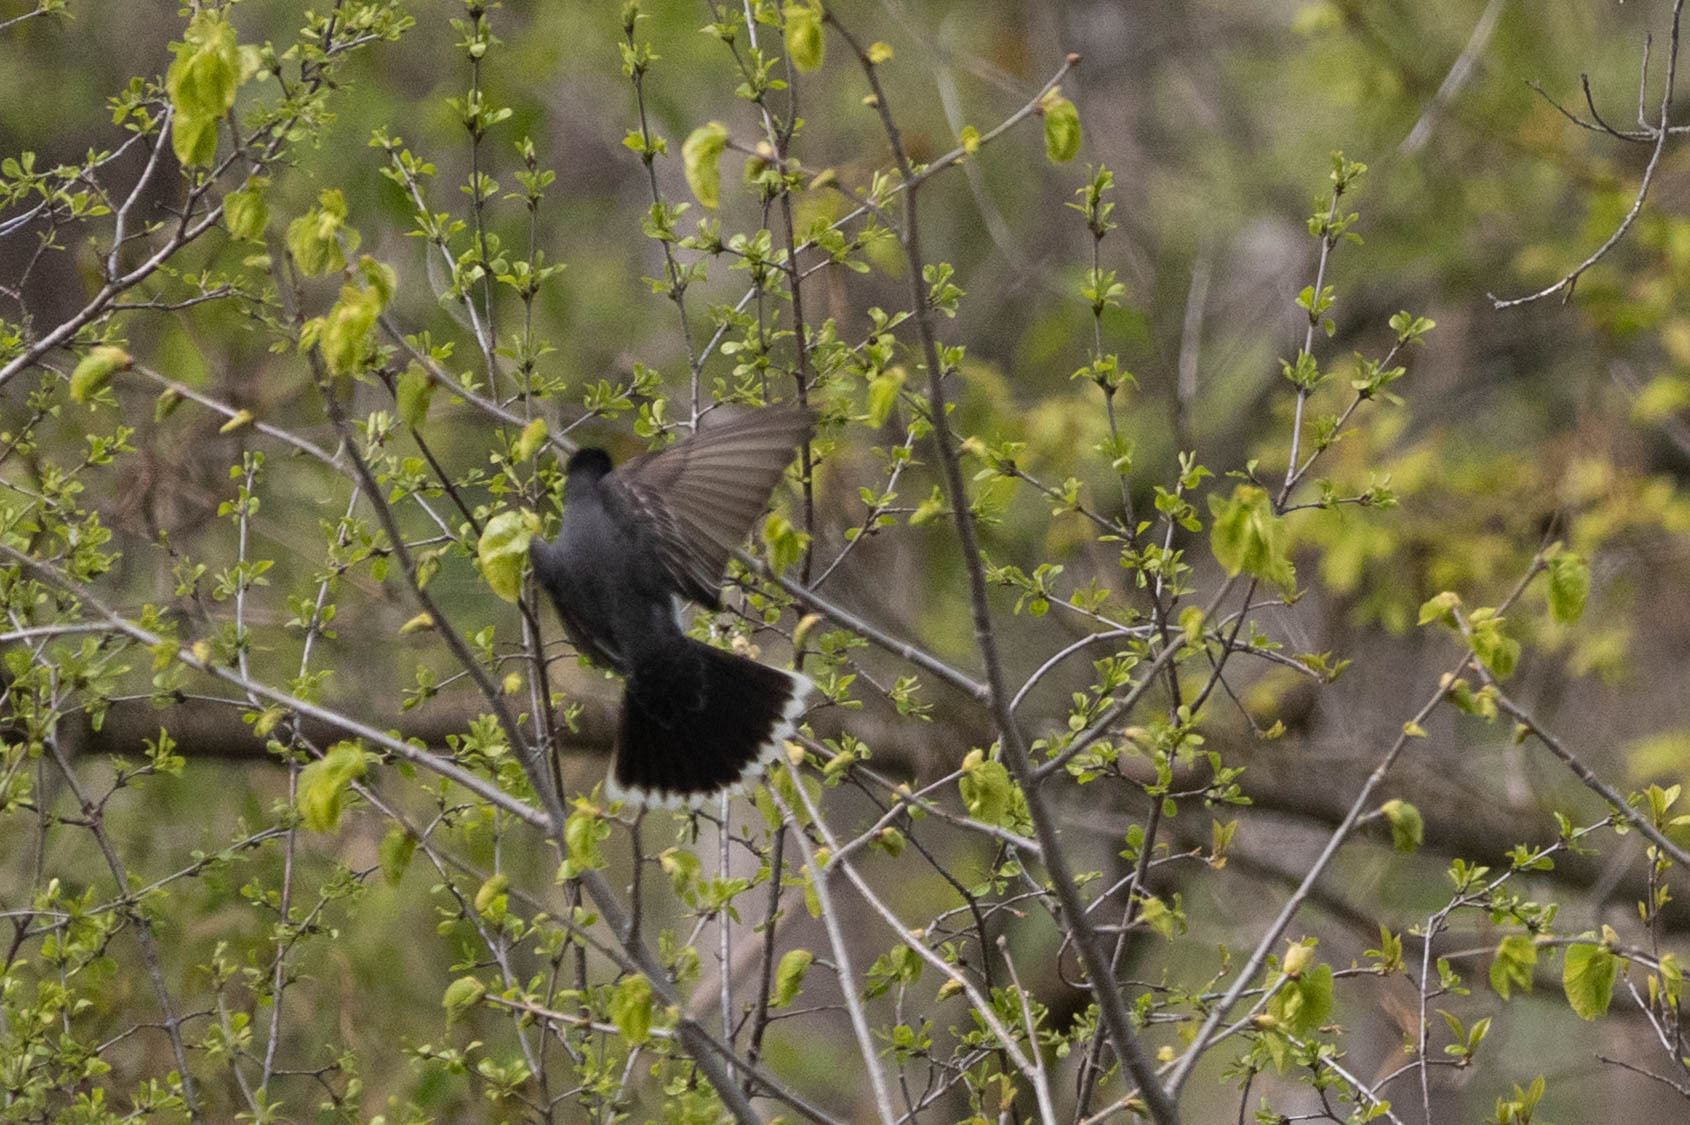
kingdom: Animalia
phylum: Chordata
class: Aves
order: Passeriformes
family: Tyrannidae
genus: Tyrannus
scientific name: Tyrannus tyrannus
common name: Eastern kingbird
